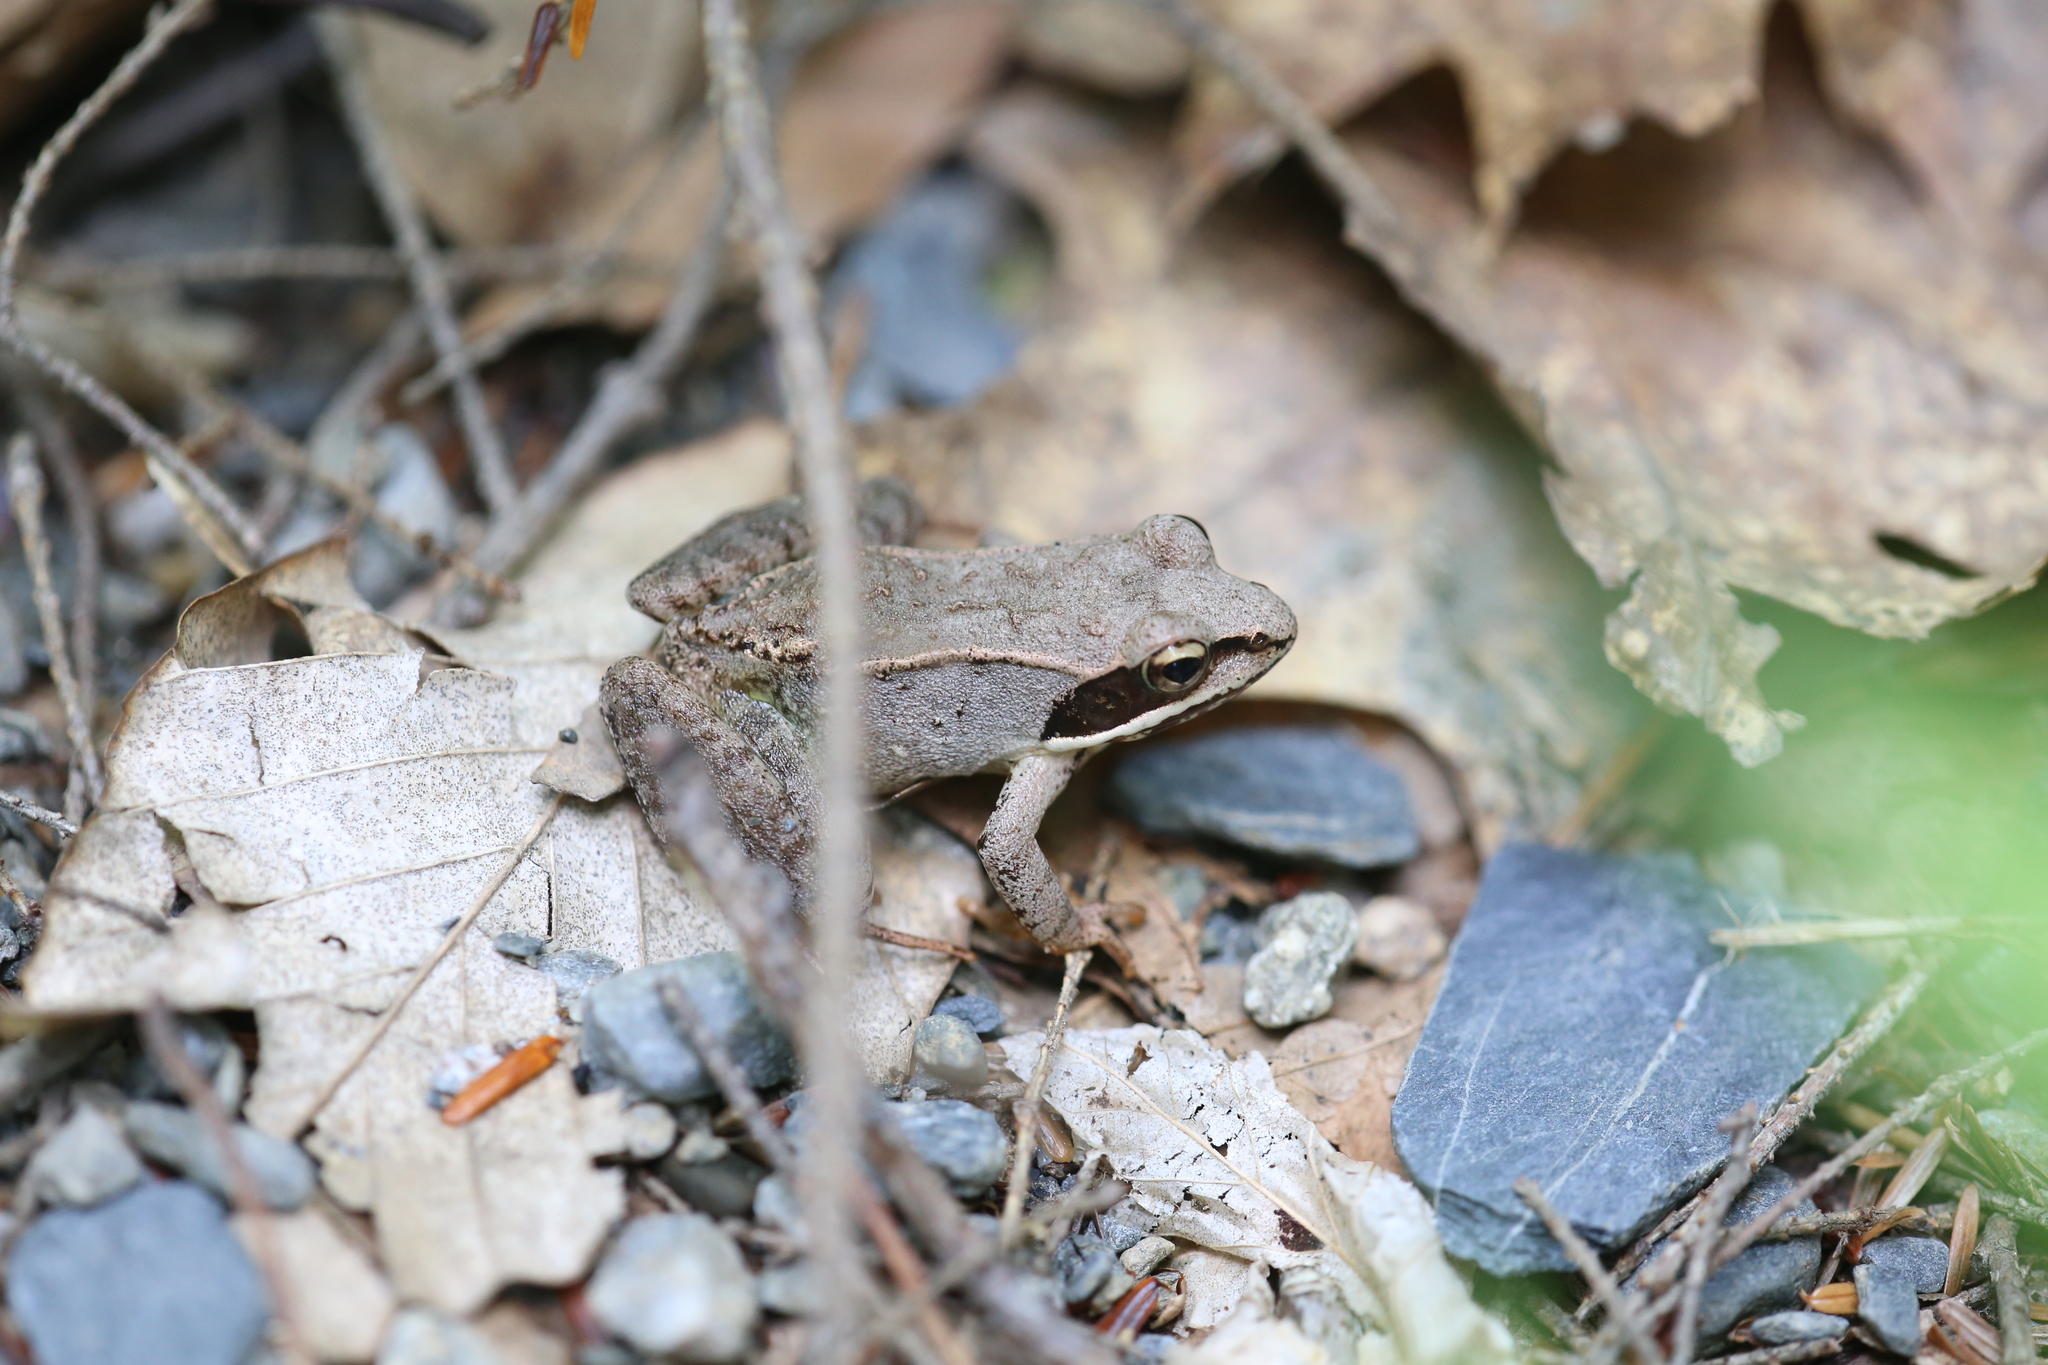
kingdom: Animalia
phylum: Chordata
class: Amphibia
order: Anura
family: Ranidae
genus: Lithobates
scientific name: Lithobates sylvaticus
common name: Wood frog
